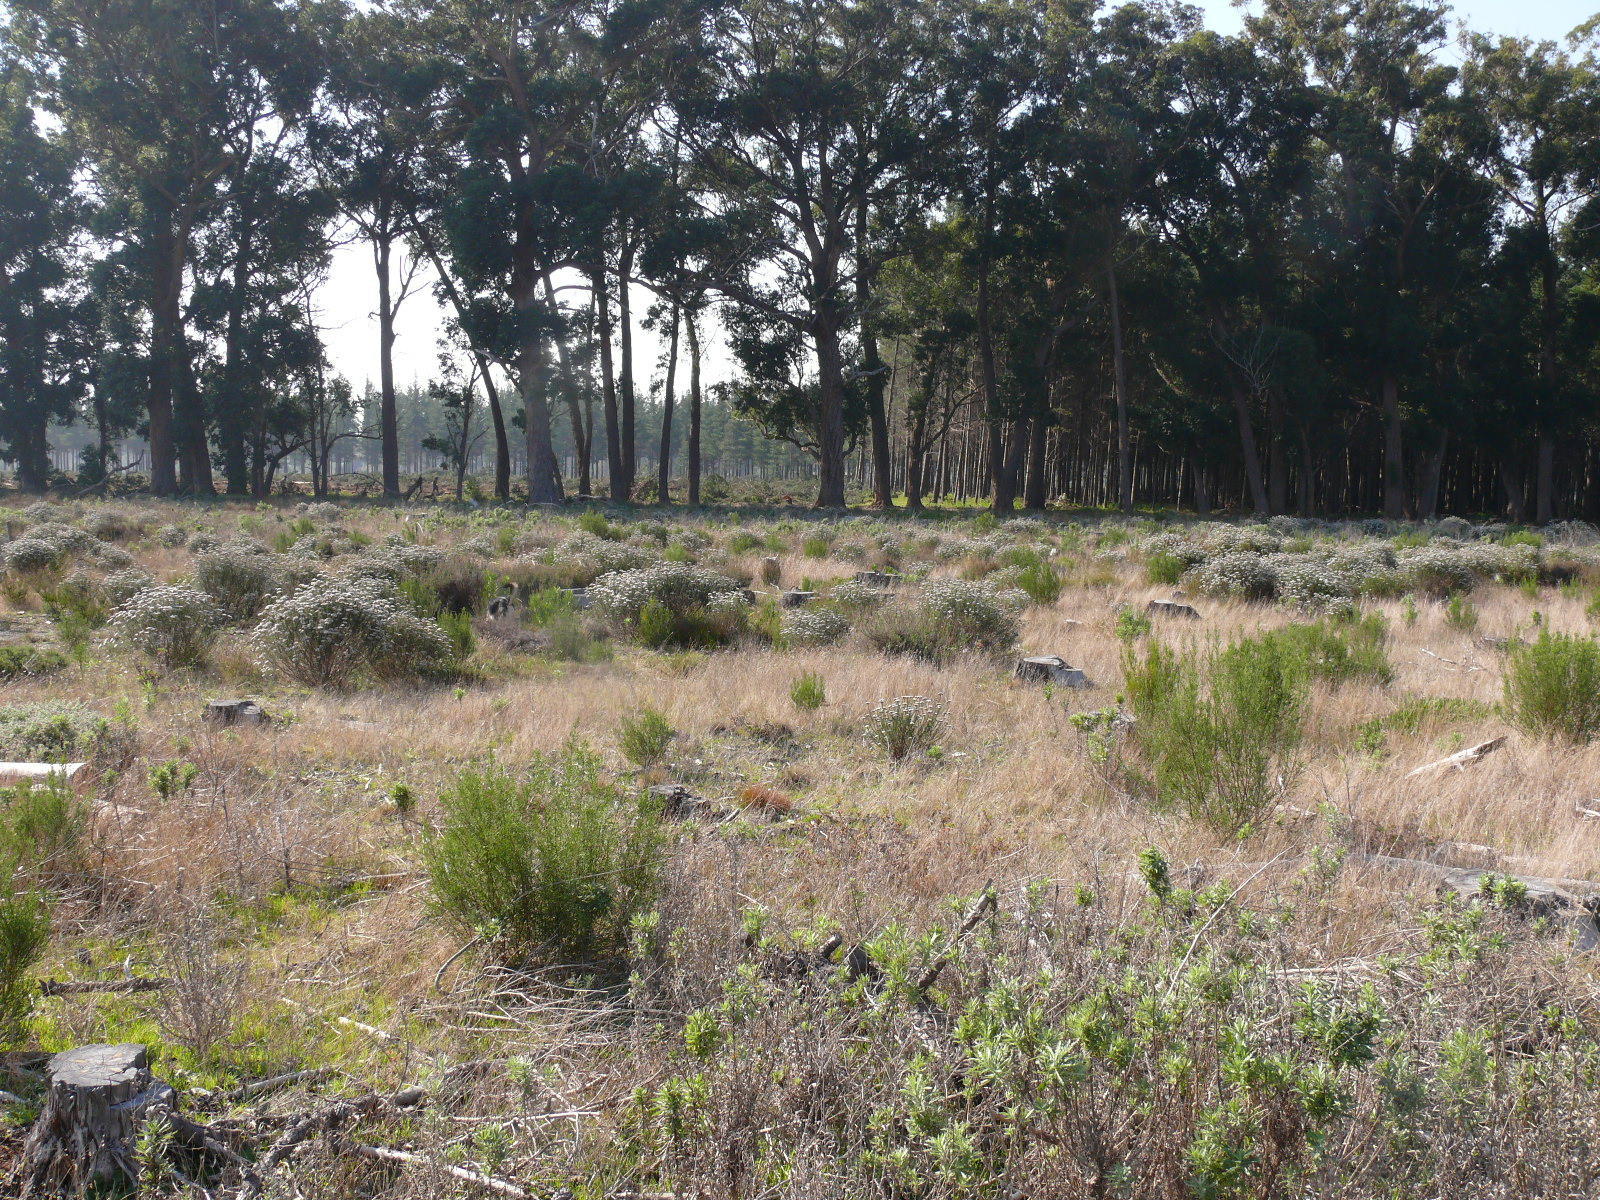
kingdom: Plantae
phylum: Tracheophyta
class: Magnoliopsida
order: Malvales
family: Thymelaeaceae
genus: Passerina
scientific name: Passerina corymbosa
